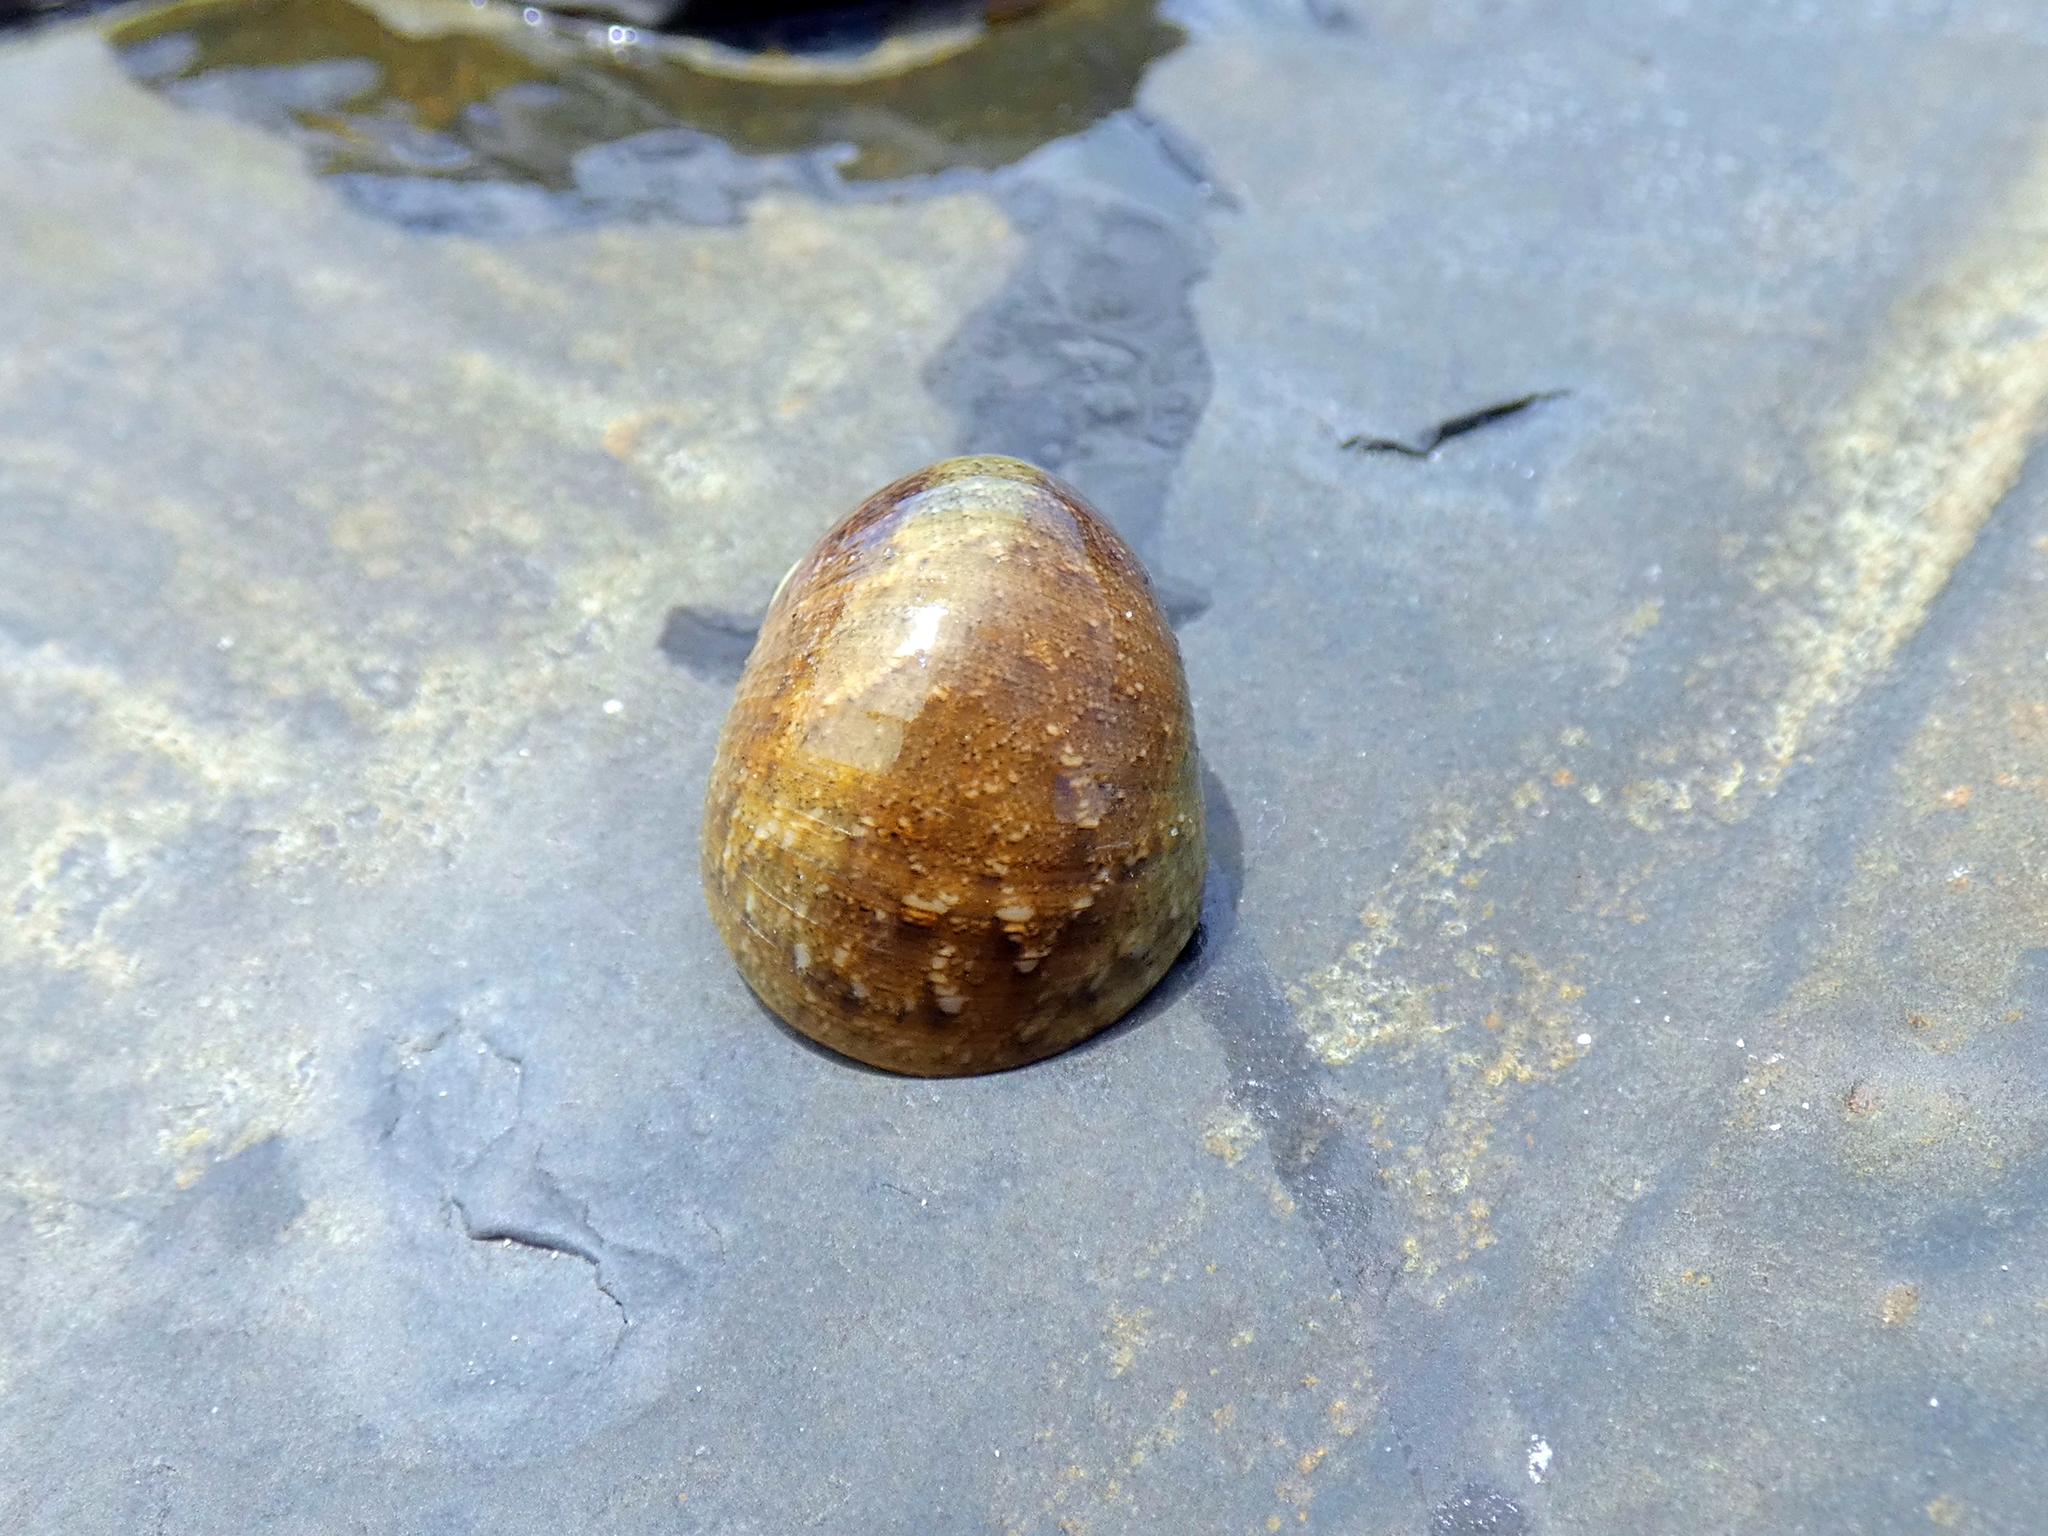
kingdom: Animalia
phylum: Mollusca
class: Gastropoda
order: Cycloneritida
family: Neritidae
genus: Nerita
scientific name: Nerita erythrostoma
